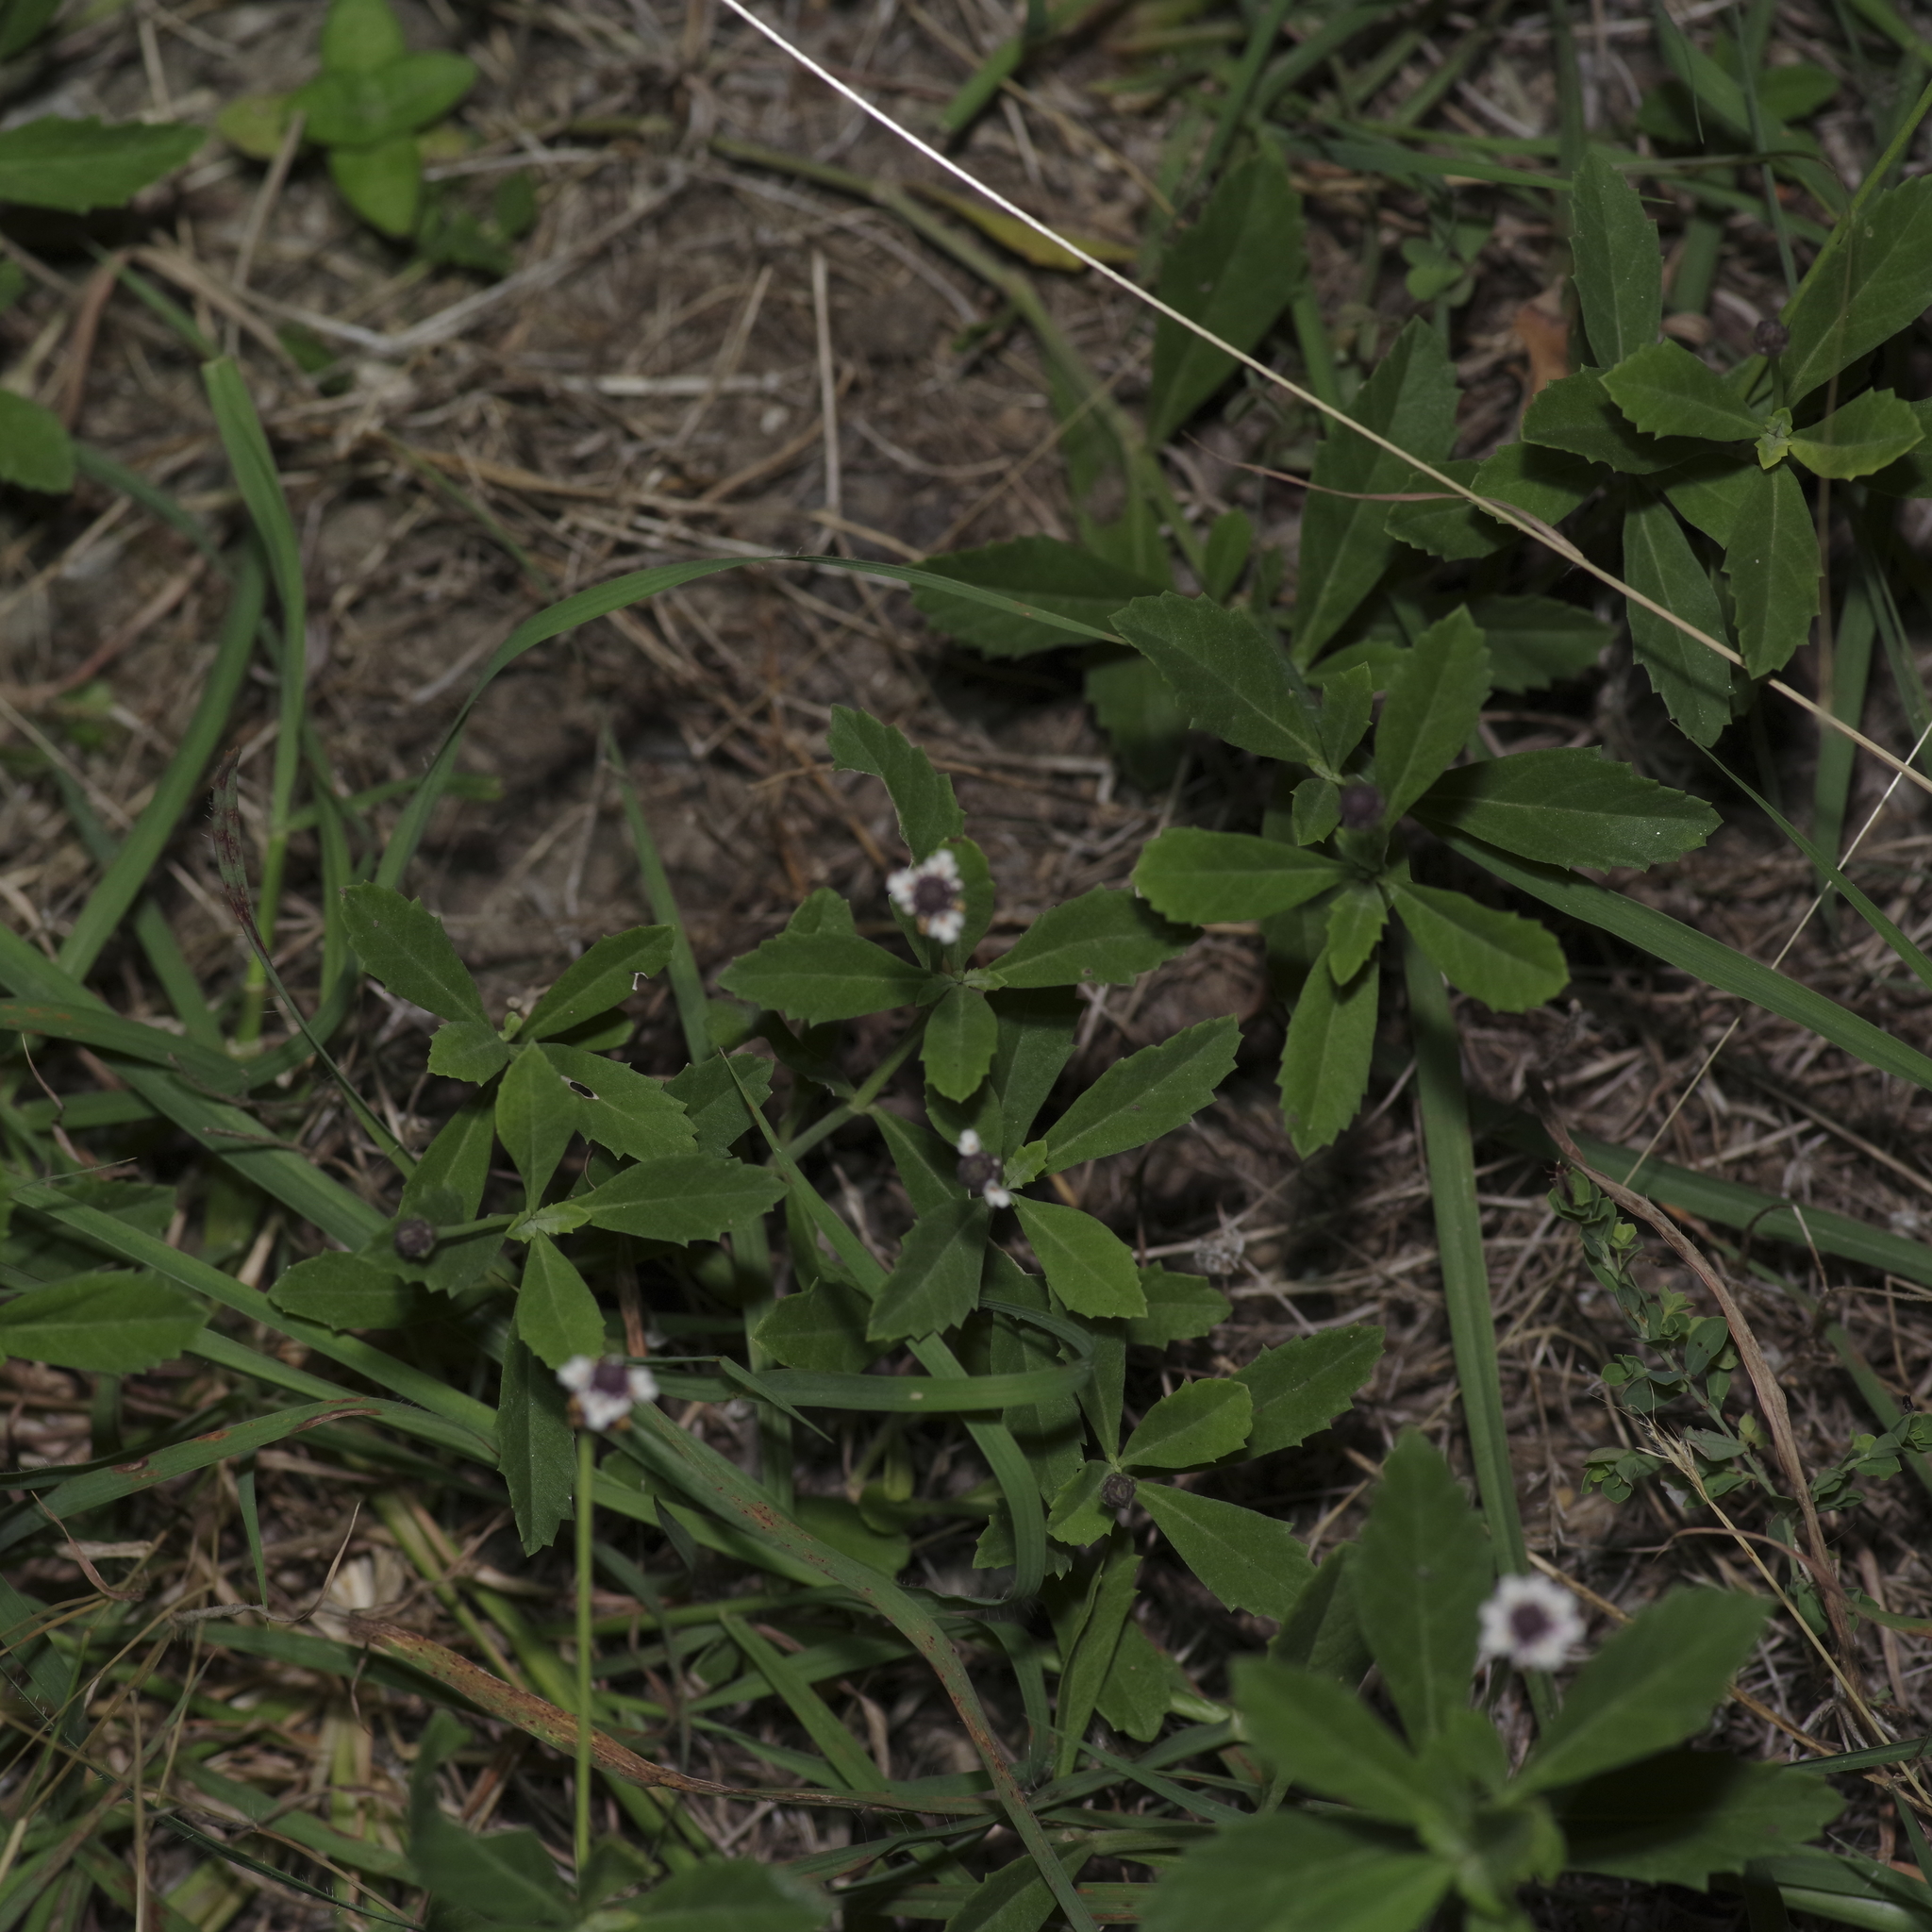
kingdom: Plantae
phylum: Tracheophyta
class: Magnoliopsida
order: Lamiales
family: Verbenaceae
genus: Phyla
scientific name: Phyla nodiflora
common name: Frogfruit
